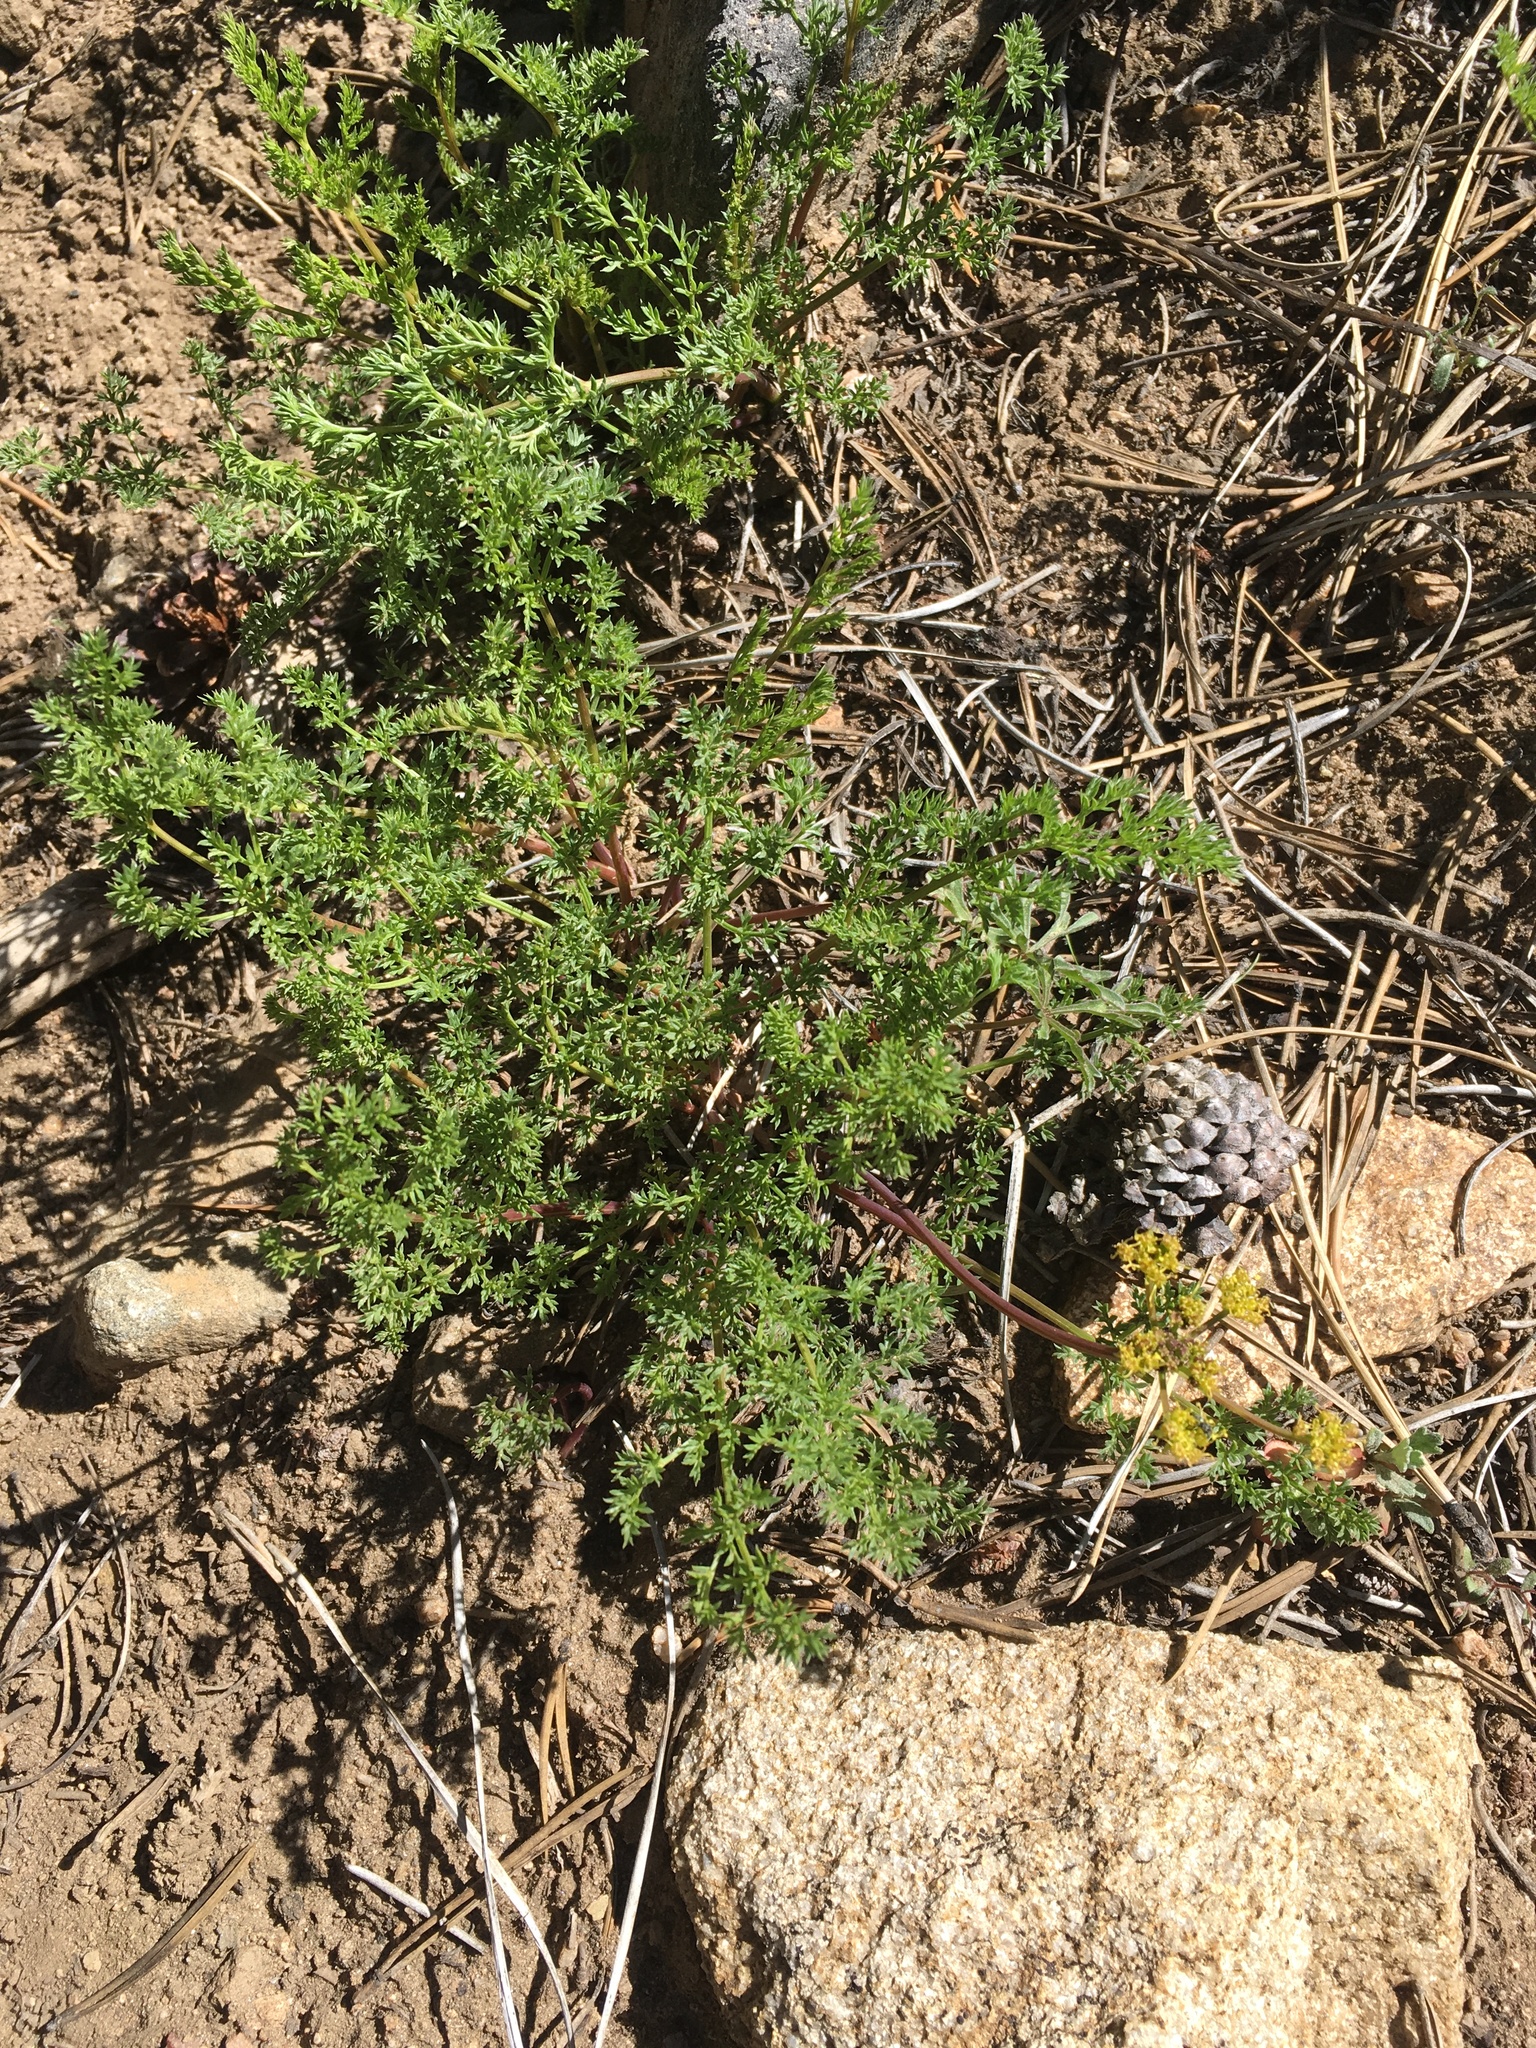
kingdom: Plantae
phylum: Tracheophyta
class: Magnoliopsida
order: Apiales
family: Apiaceae
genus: Pteryxia
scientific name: Pteryxia terebinthina
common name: Turpentine wavewing
